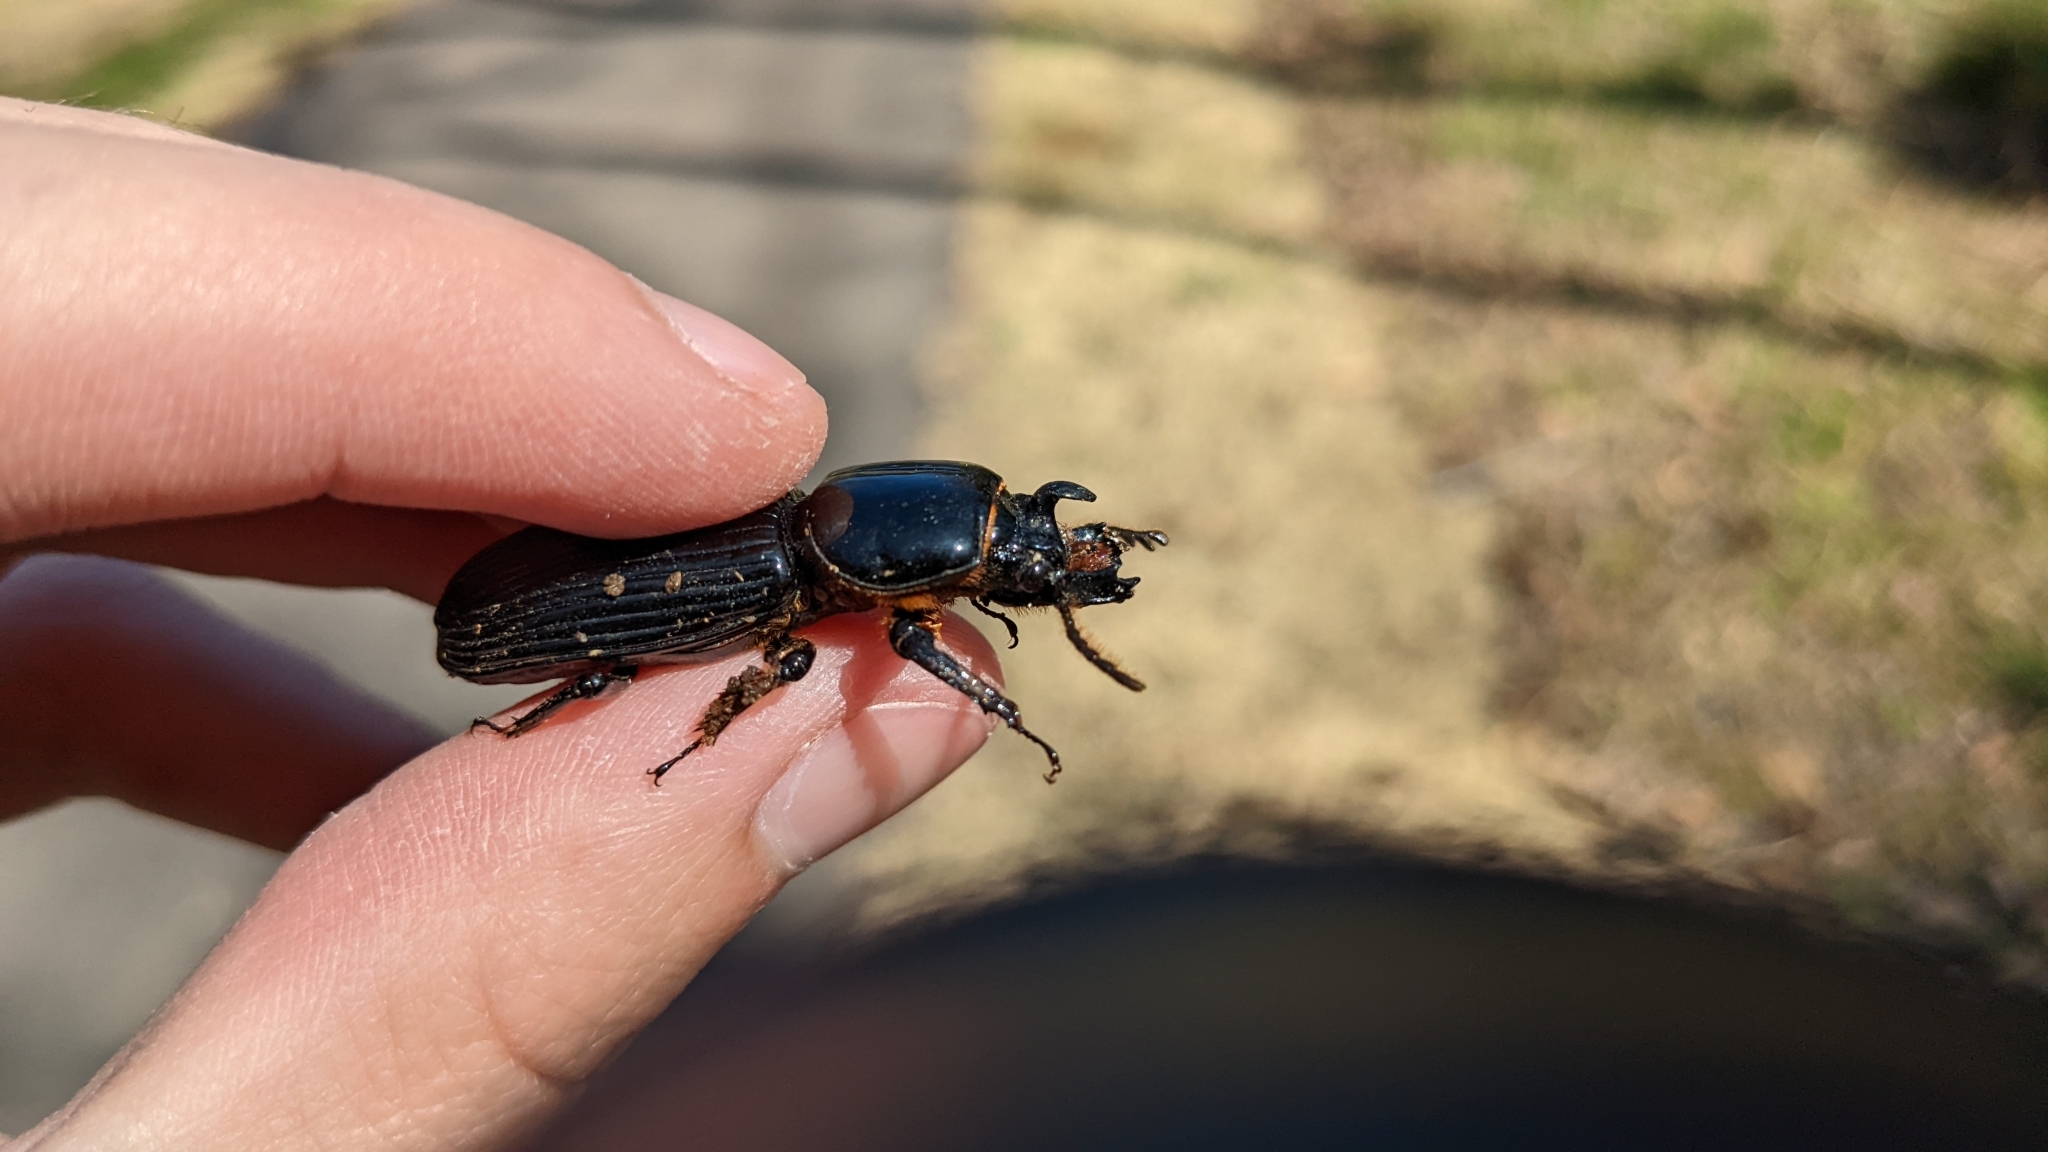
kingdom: Animalia
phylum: Arthropoda
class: Insecta
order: Coleoptera
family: Passalidae
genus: Odontotaenius
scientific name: Odontotaenius disjunctus
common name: Patent leather beetle
